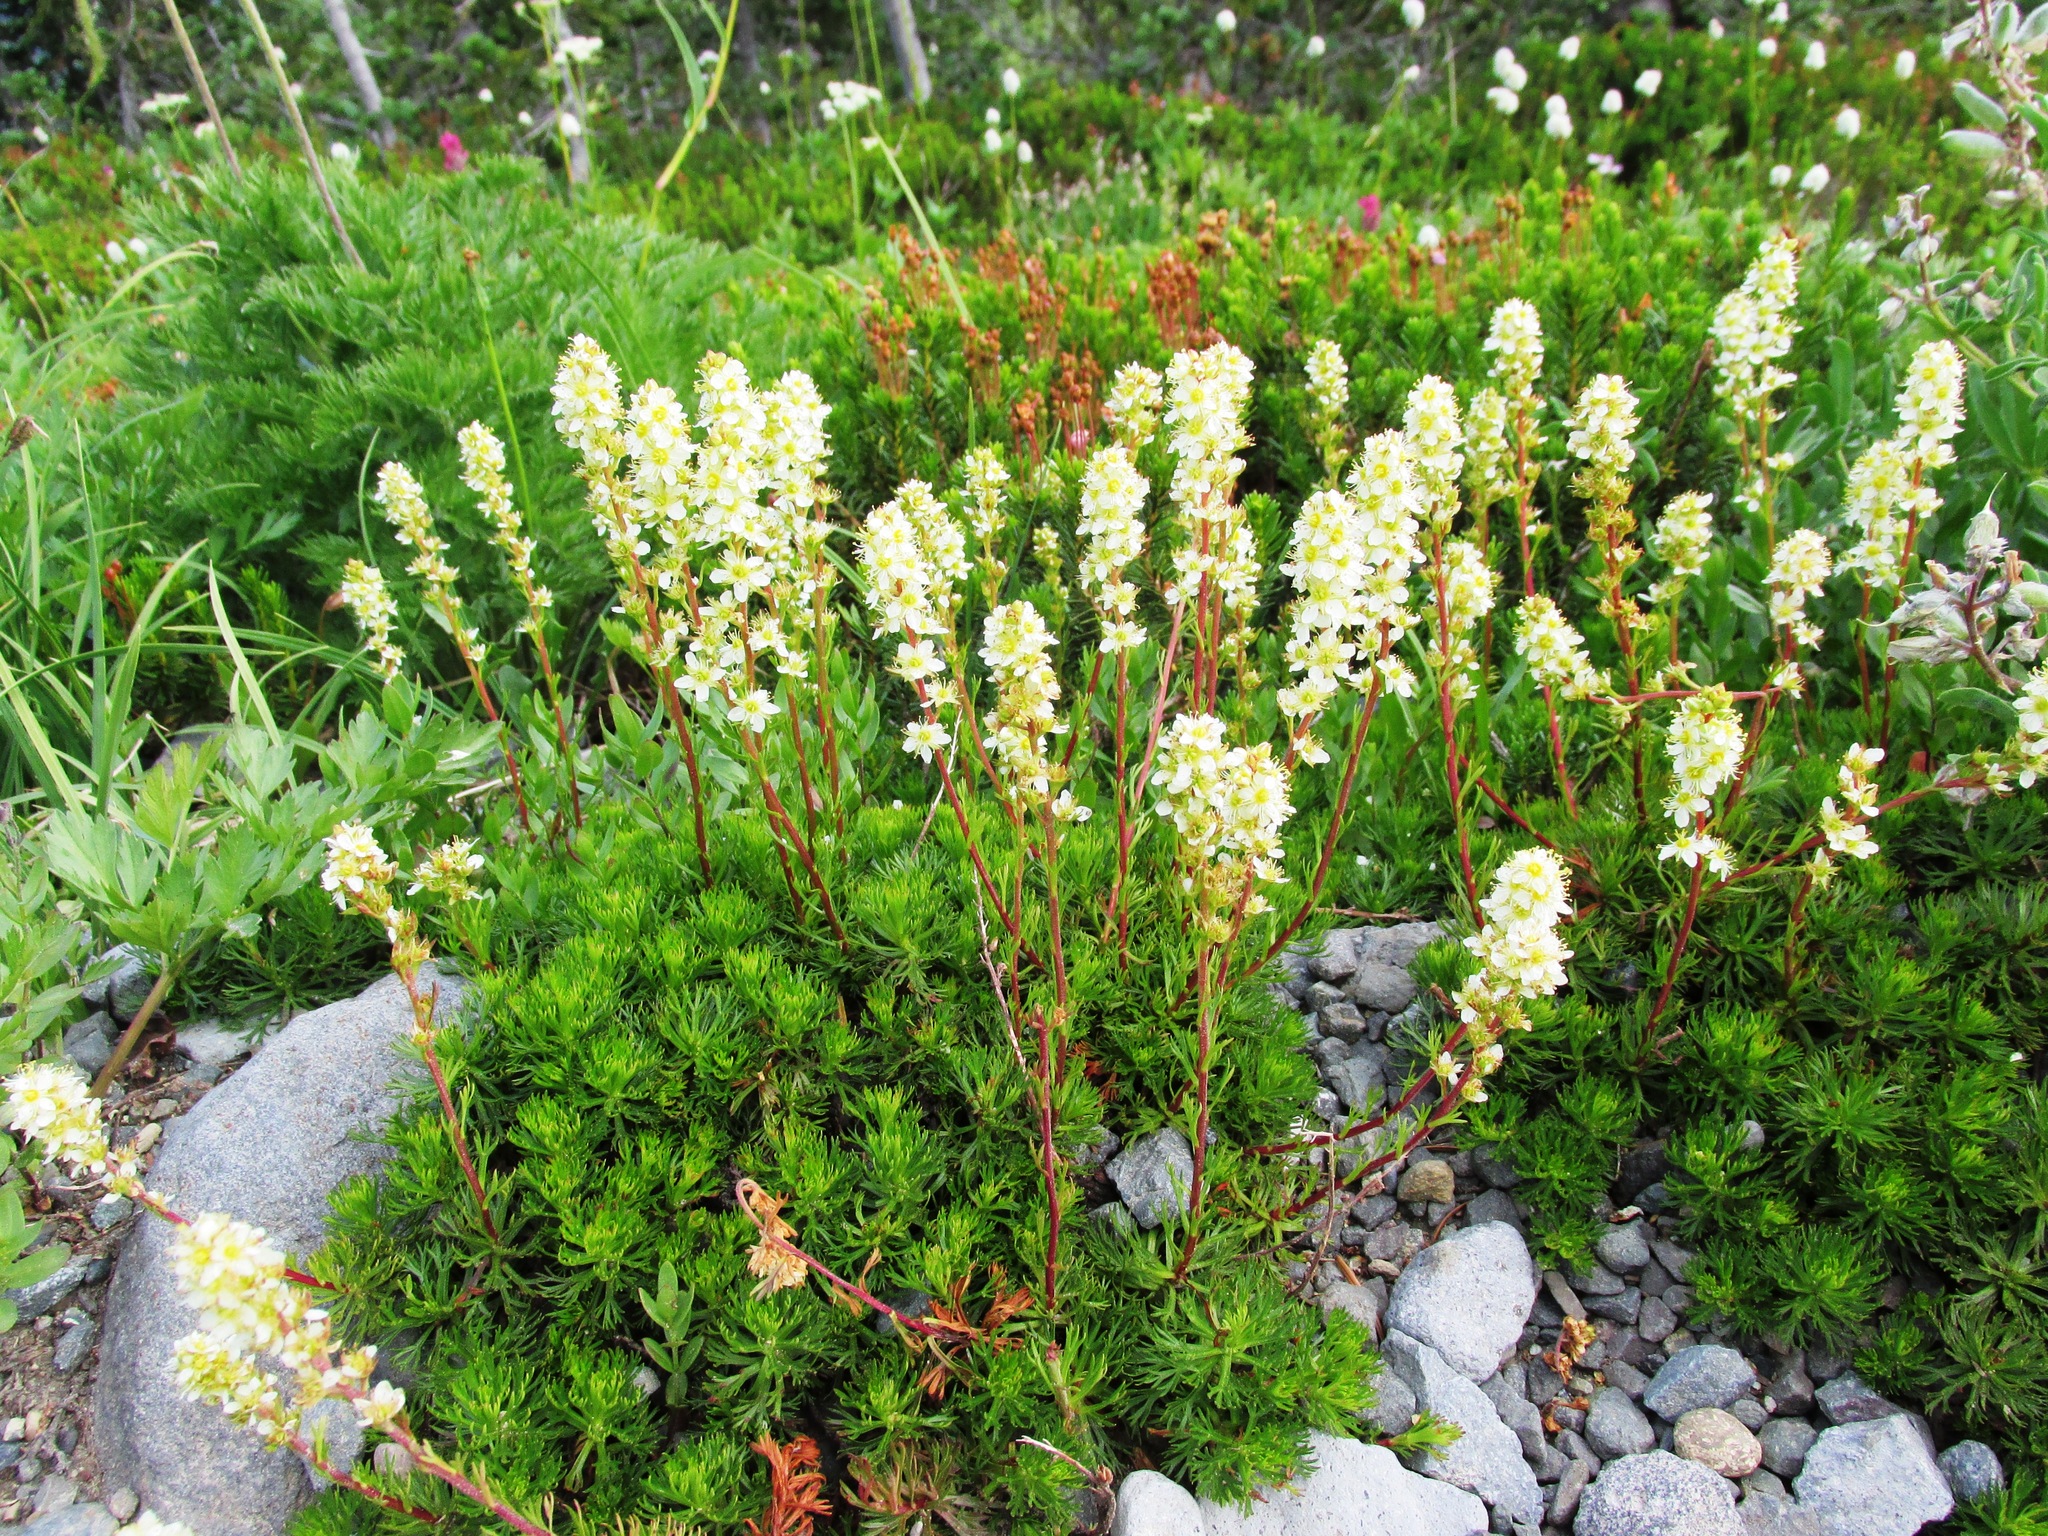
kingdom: Plantae
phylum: Tracheophyta
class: Magnoliopsida
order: Rosales
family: Rosaceae
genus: Luetkea
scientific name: Luetkea pectinata
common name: Partridgefoot
